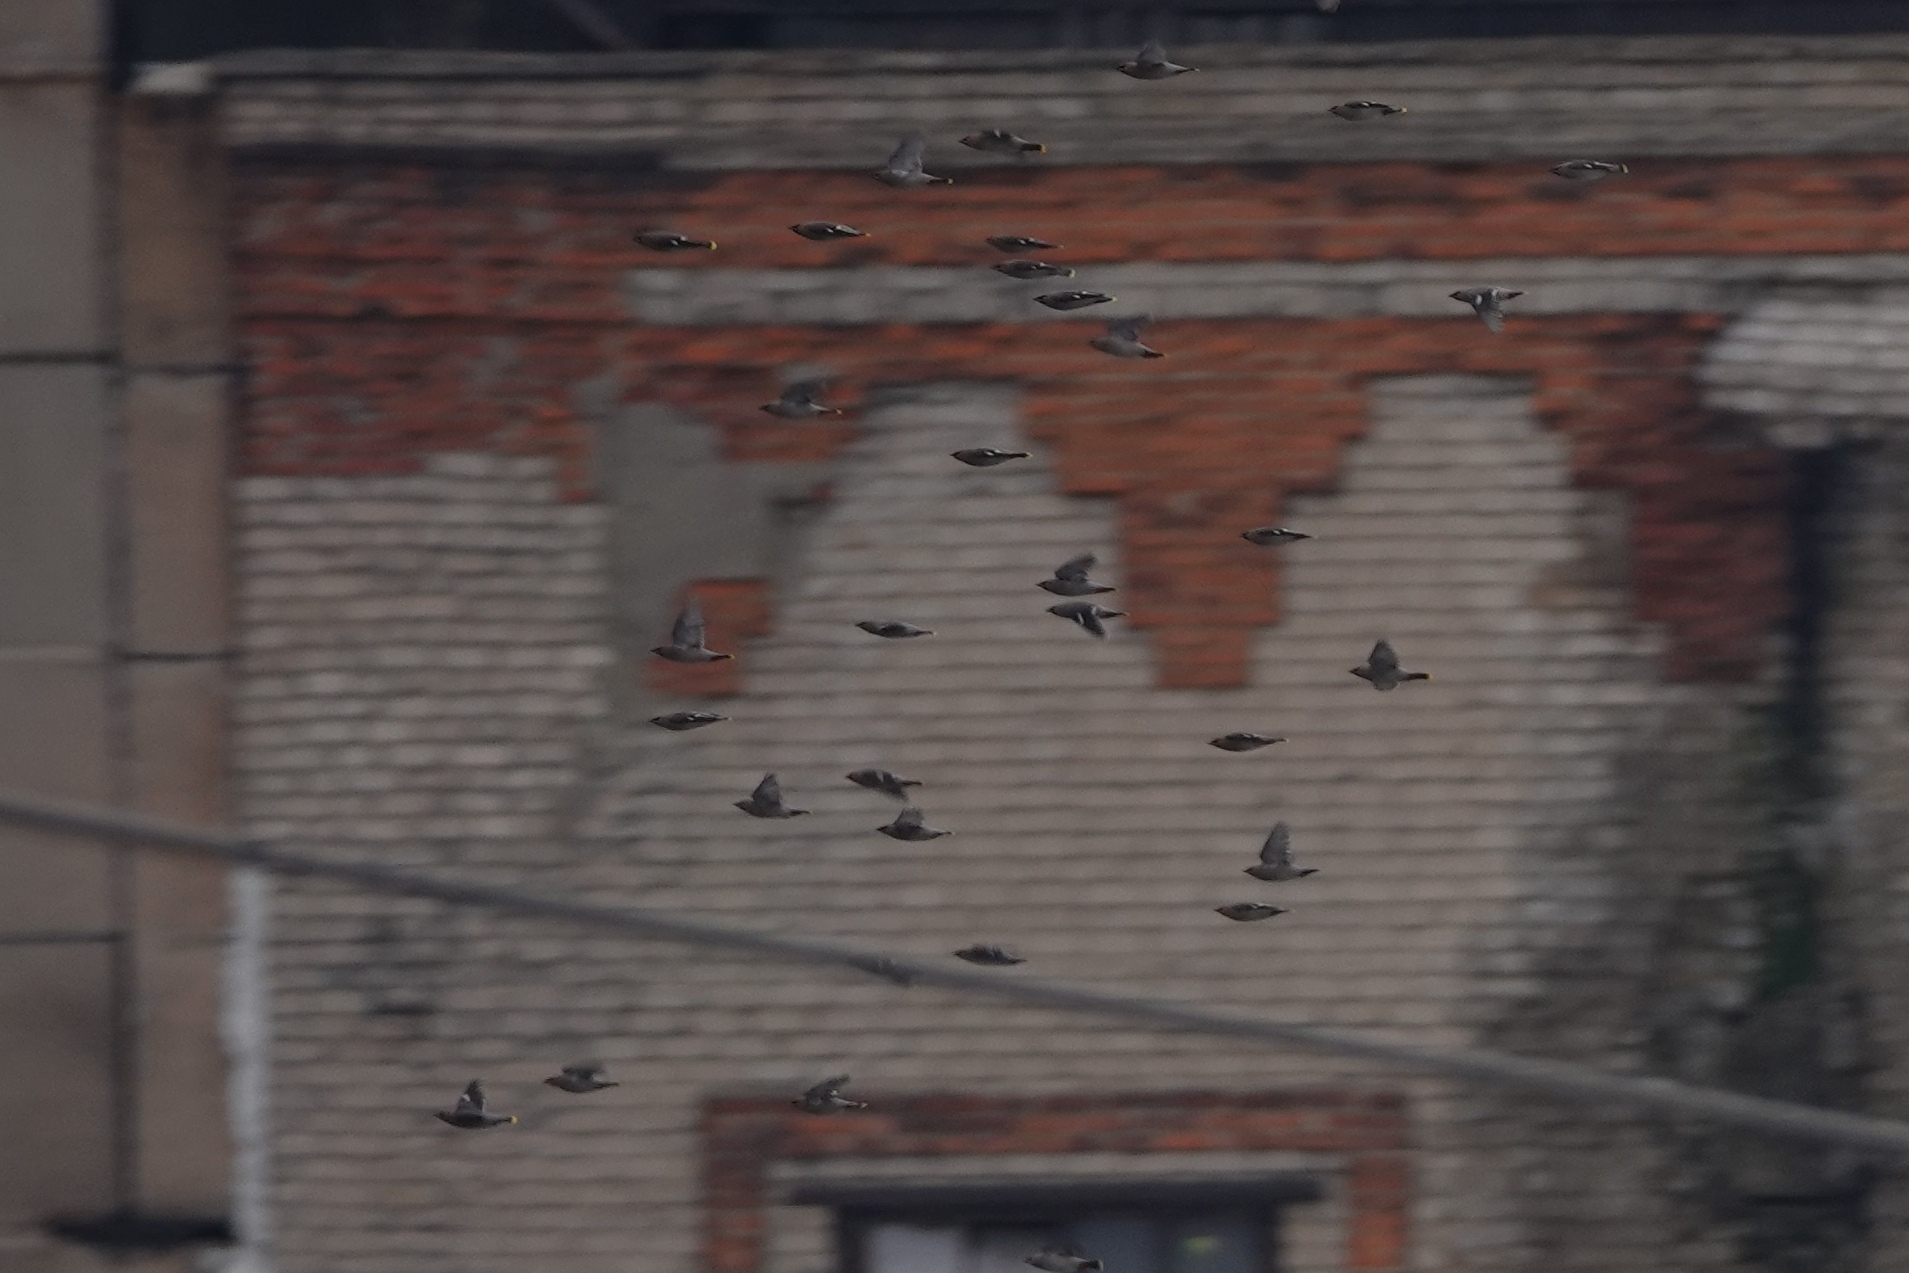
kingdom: Animalia
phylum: Chordata
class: Aves
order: Passeriformes
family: Bombycillidae
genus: Bombycilla
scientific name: Bombycilla garrulus
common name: Bohemian waxwing
